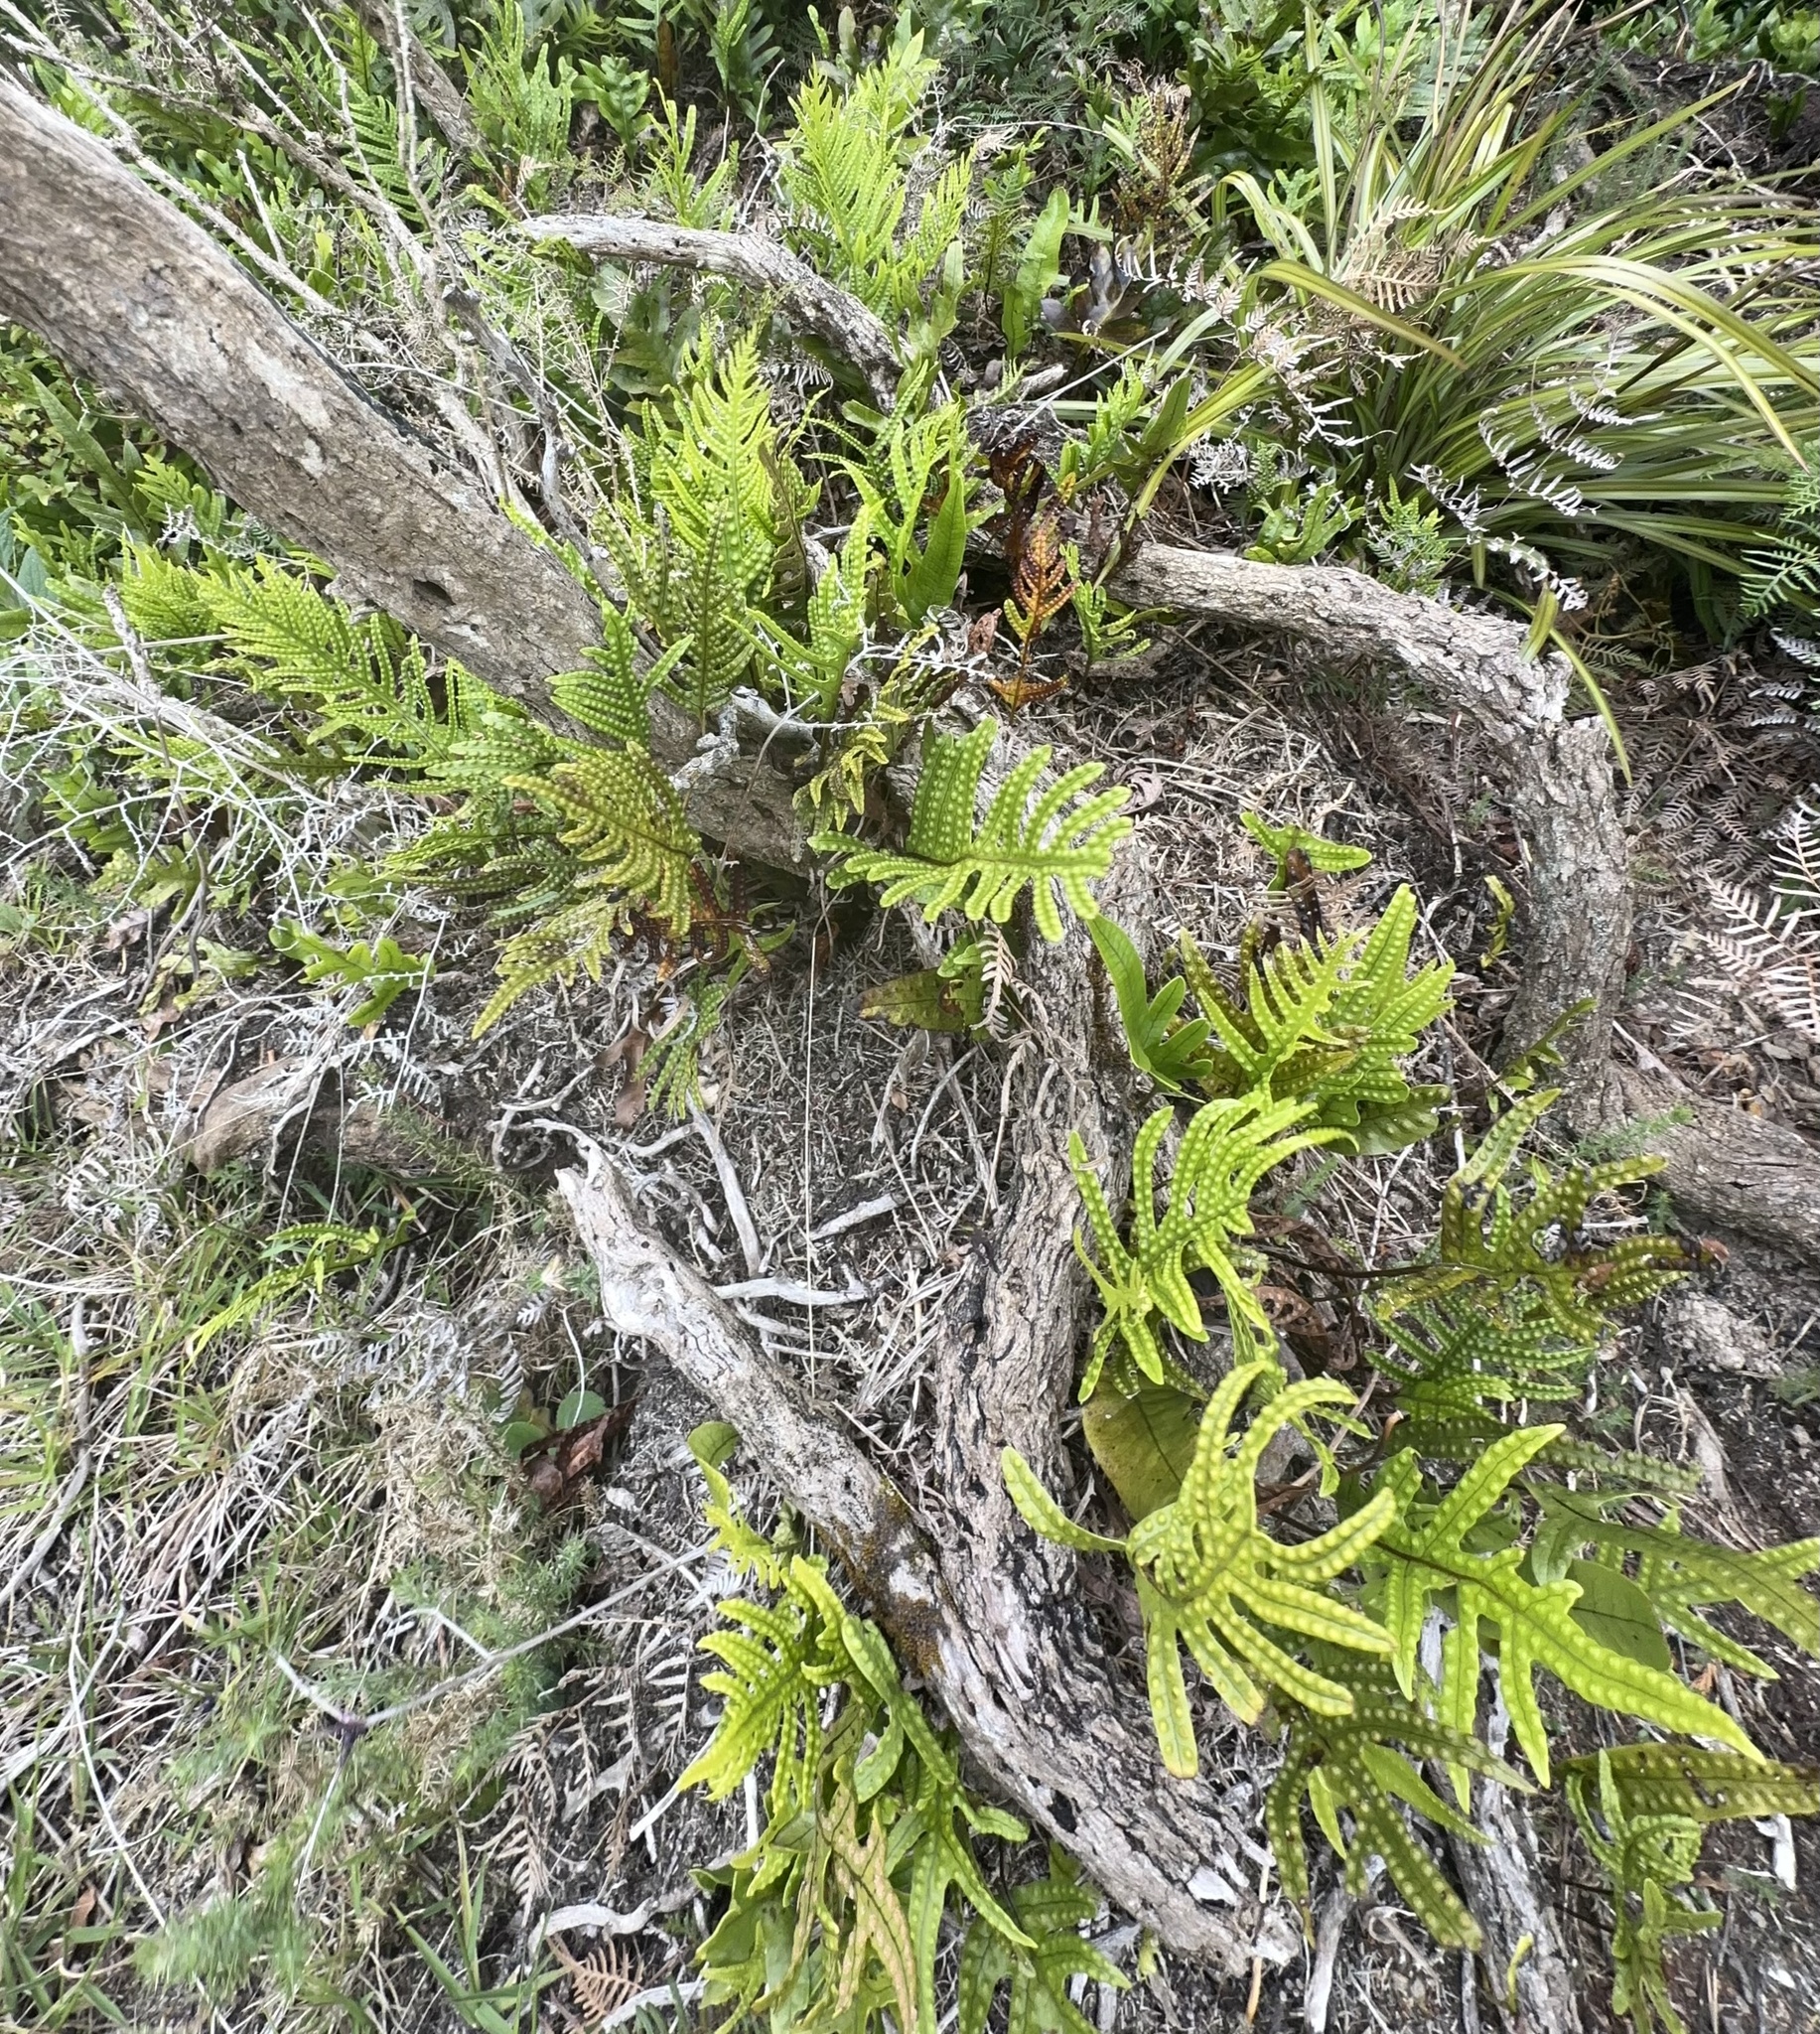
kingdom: Plantae
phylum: Tracheophyta
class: Polypodiopsida
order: Polypodiales
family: Polypodiaceae
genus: Lecanopteris
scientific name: Lecanopteris pustulata
